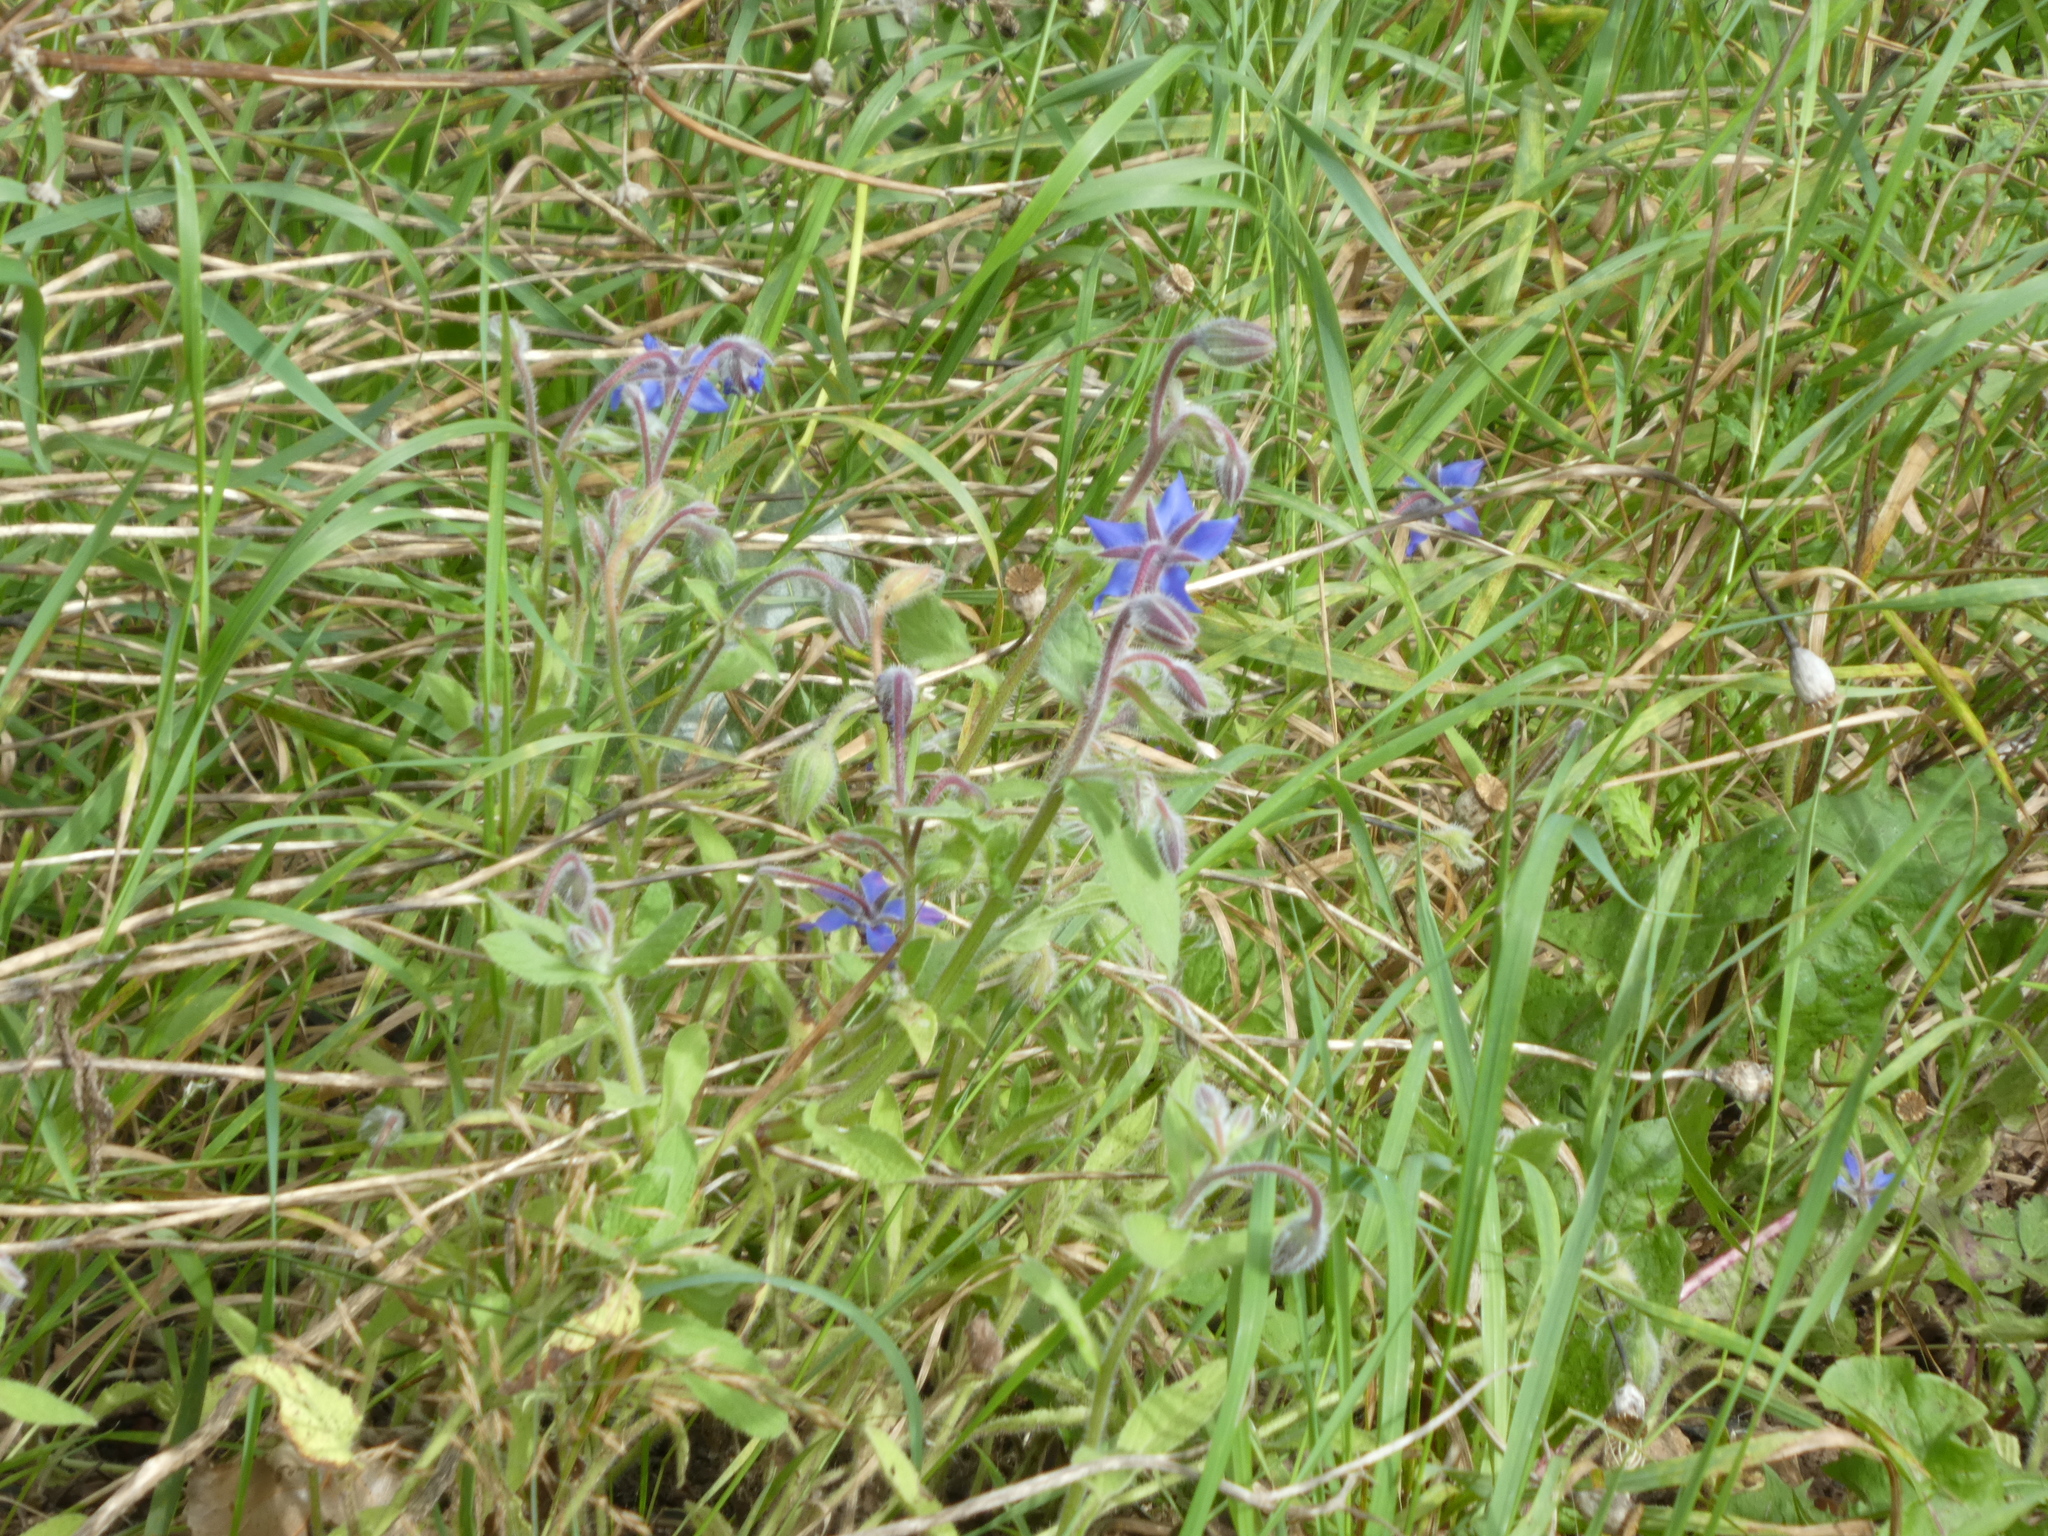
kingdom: Plantae
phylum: Tracheophyta
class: Magnoliopsida
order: Boraginales
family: Boraginaceae
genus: Borago
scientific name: Borago officinalis
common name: Borage
